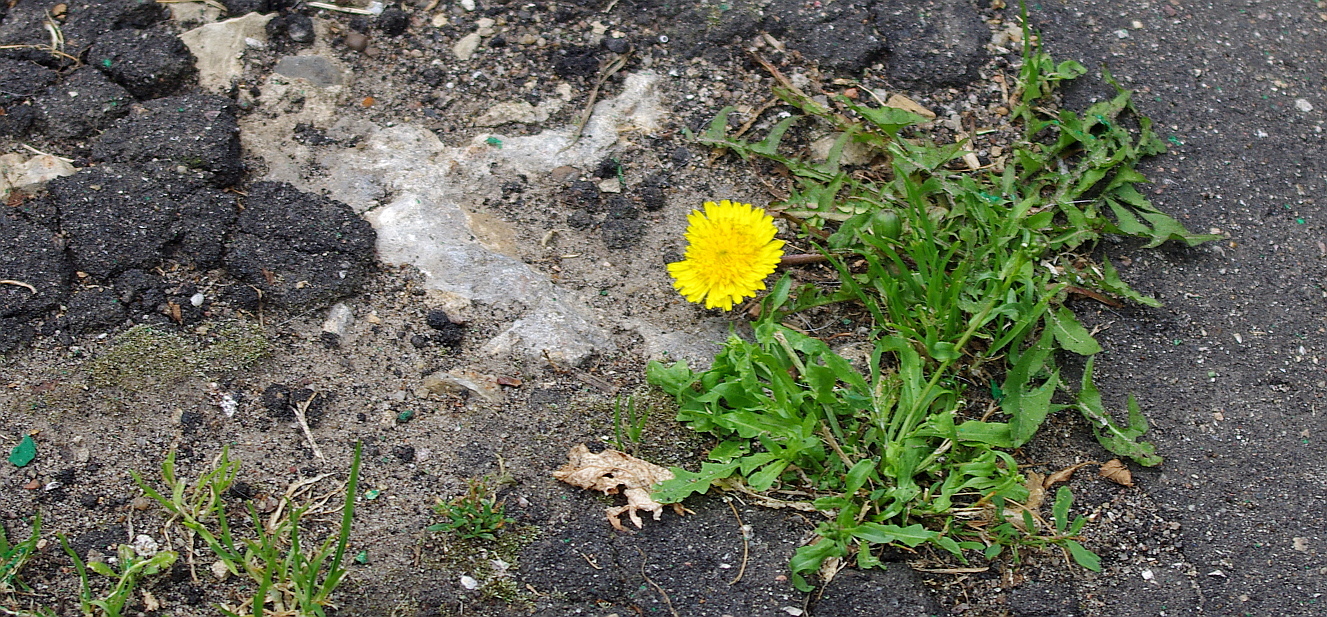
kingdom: Plantae
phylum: Tracheophyta
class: Magnoliopsida
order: Asterales
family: Asteraceae
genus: Taraxacum
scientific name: Taraxacum officinale
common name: Common dandelion
